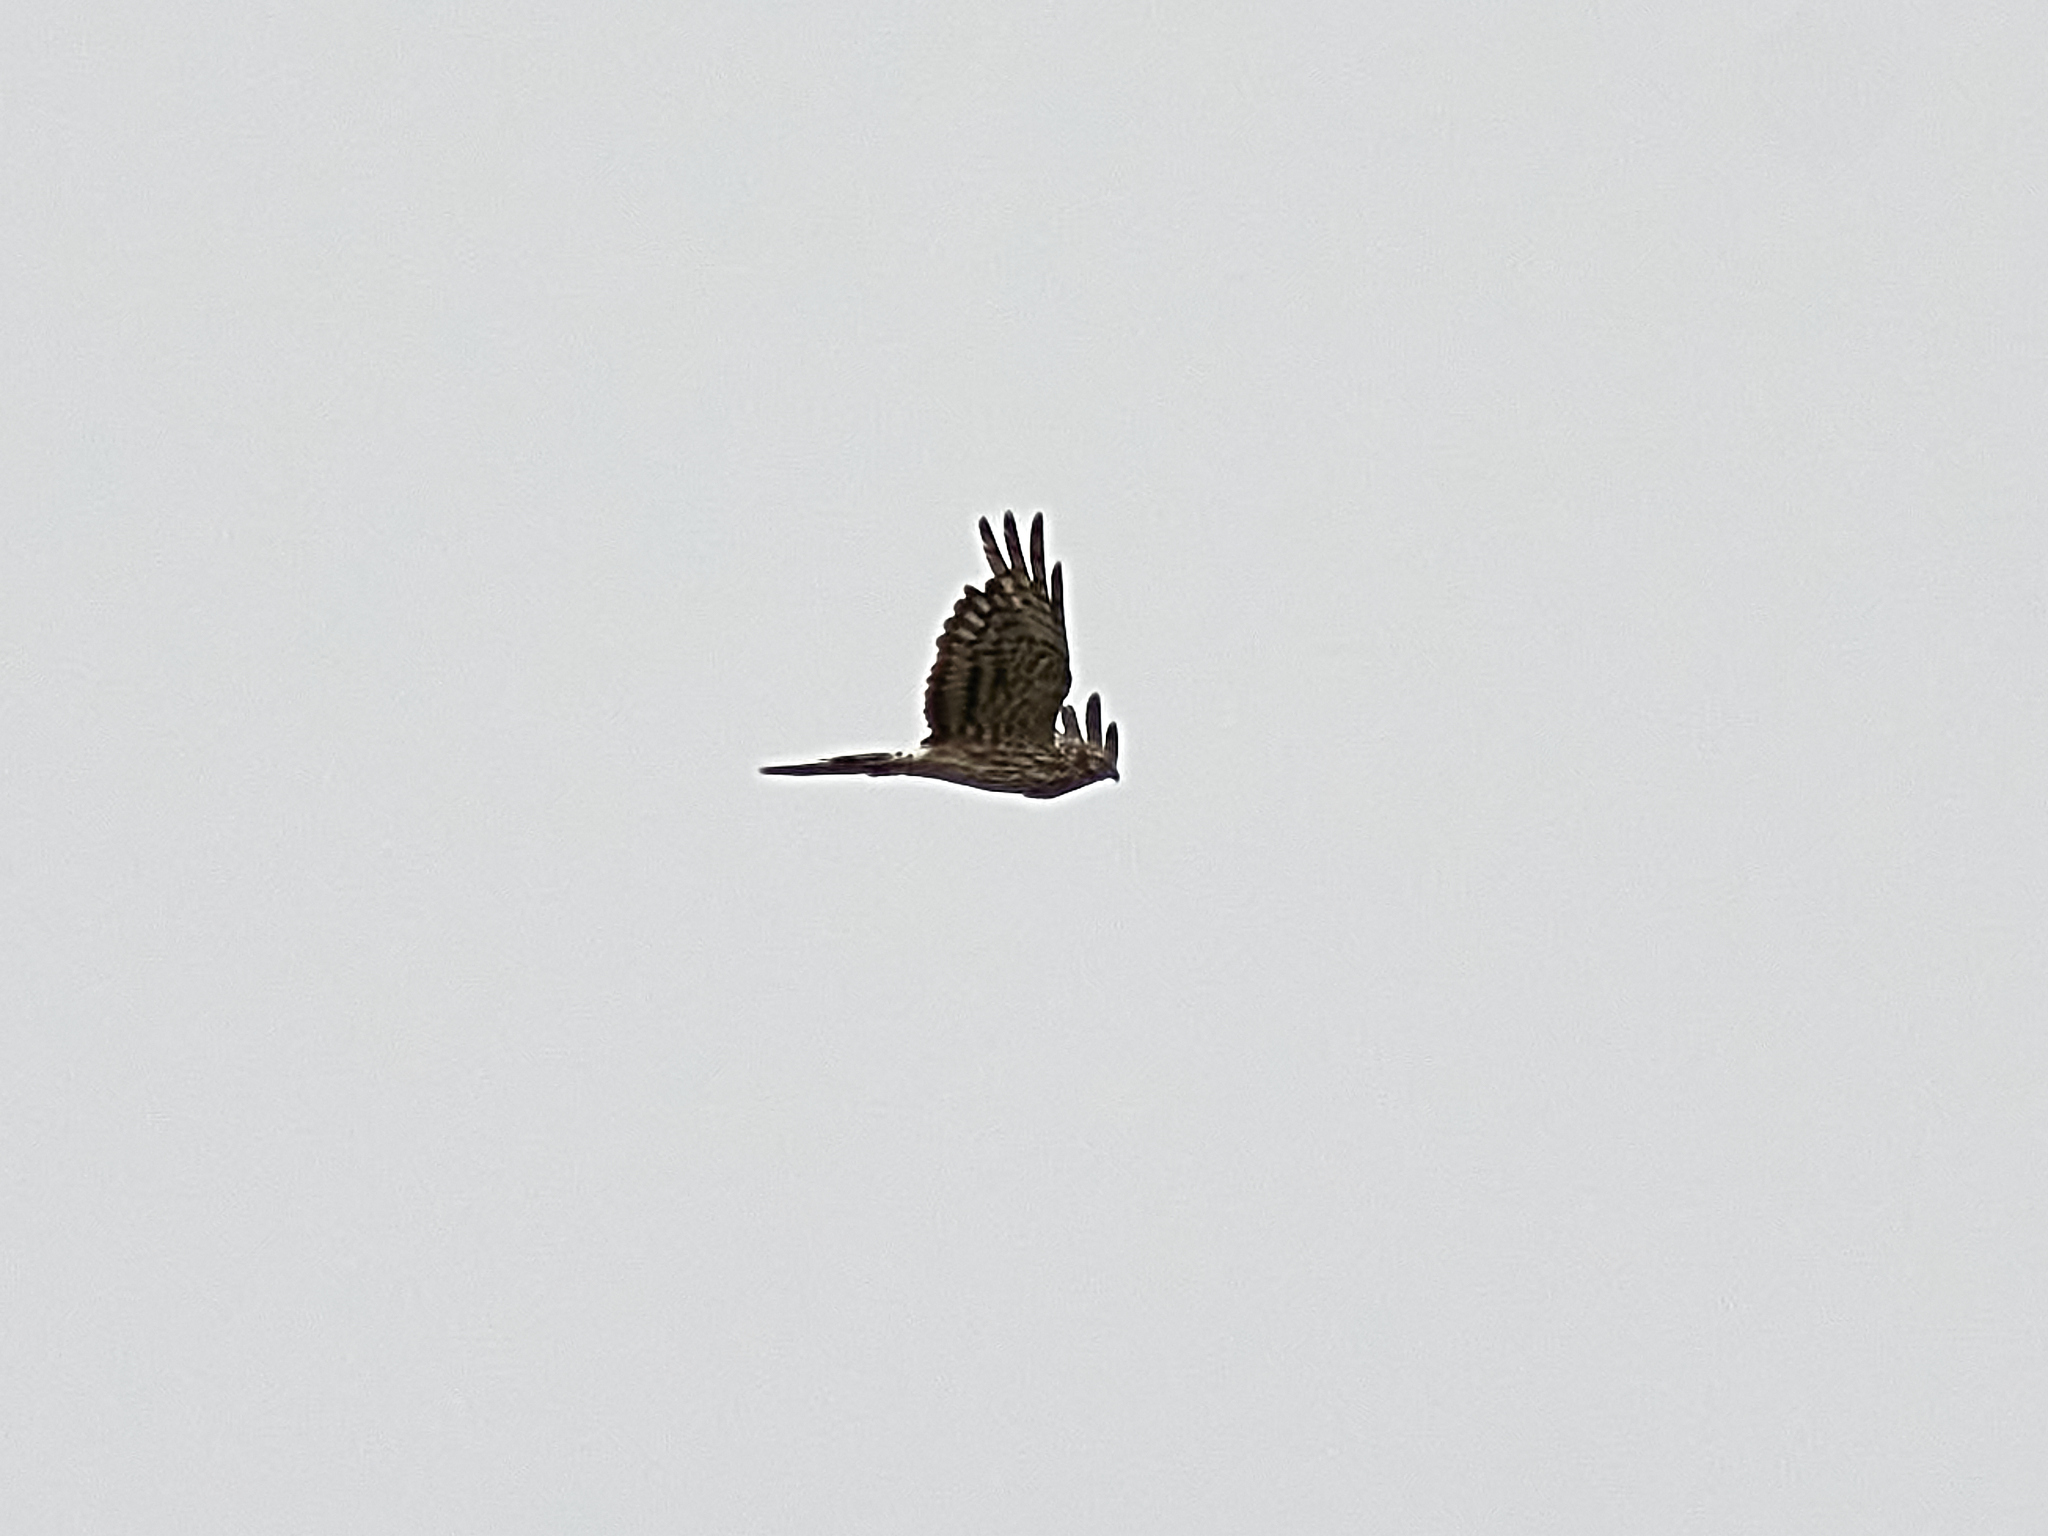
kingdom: Animalia
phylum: Chordata
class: Aves
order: Accipitriformes
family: Accipitridae
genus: Circus
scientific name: Circus pygargus
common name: Montagu's harrier
